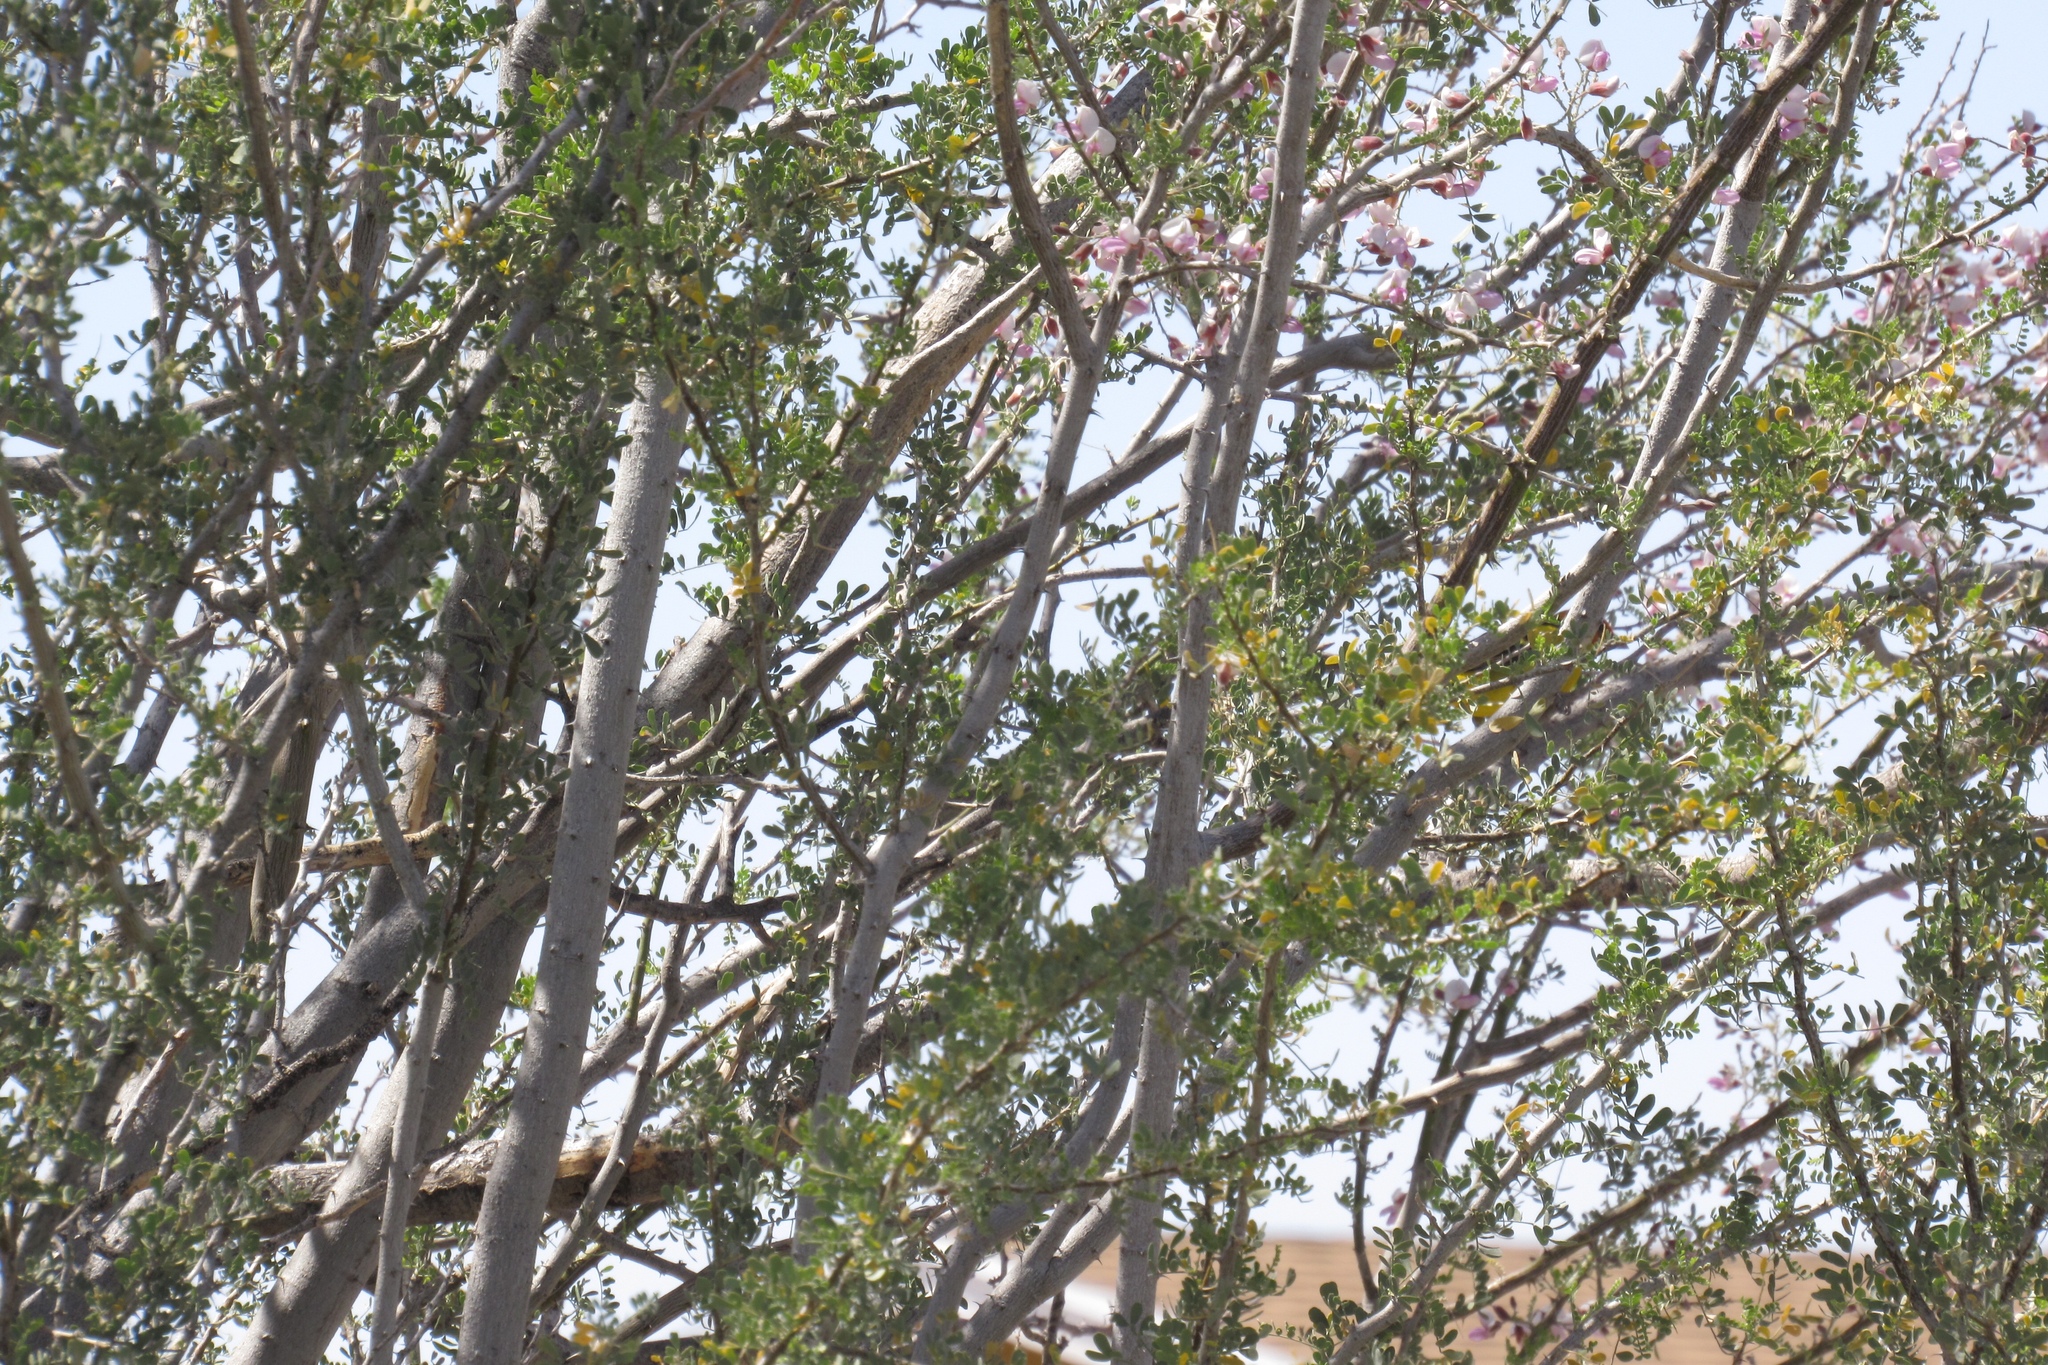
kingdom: Animalia
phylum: Chordata
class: Aves
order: Passeriformes
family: Cardinalidae
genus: Piranga
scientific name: Piranga ludoviciana
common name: Western tanager
